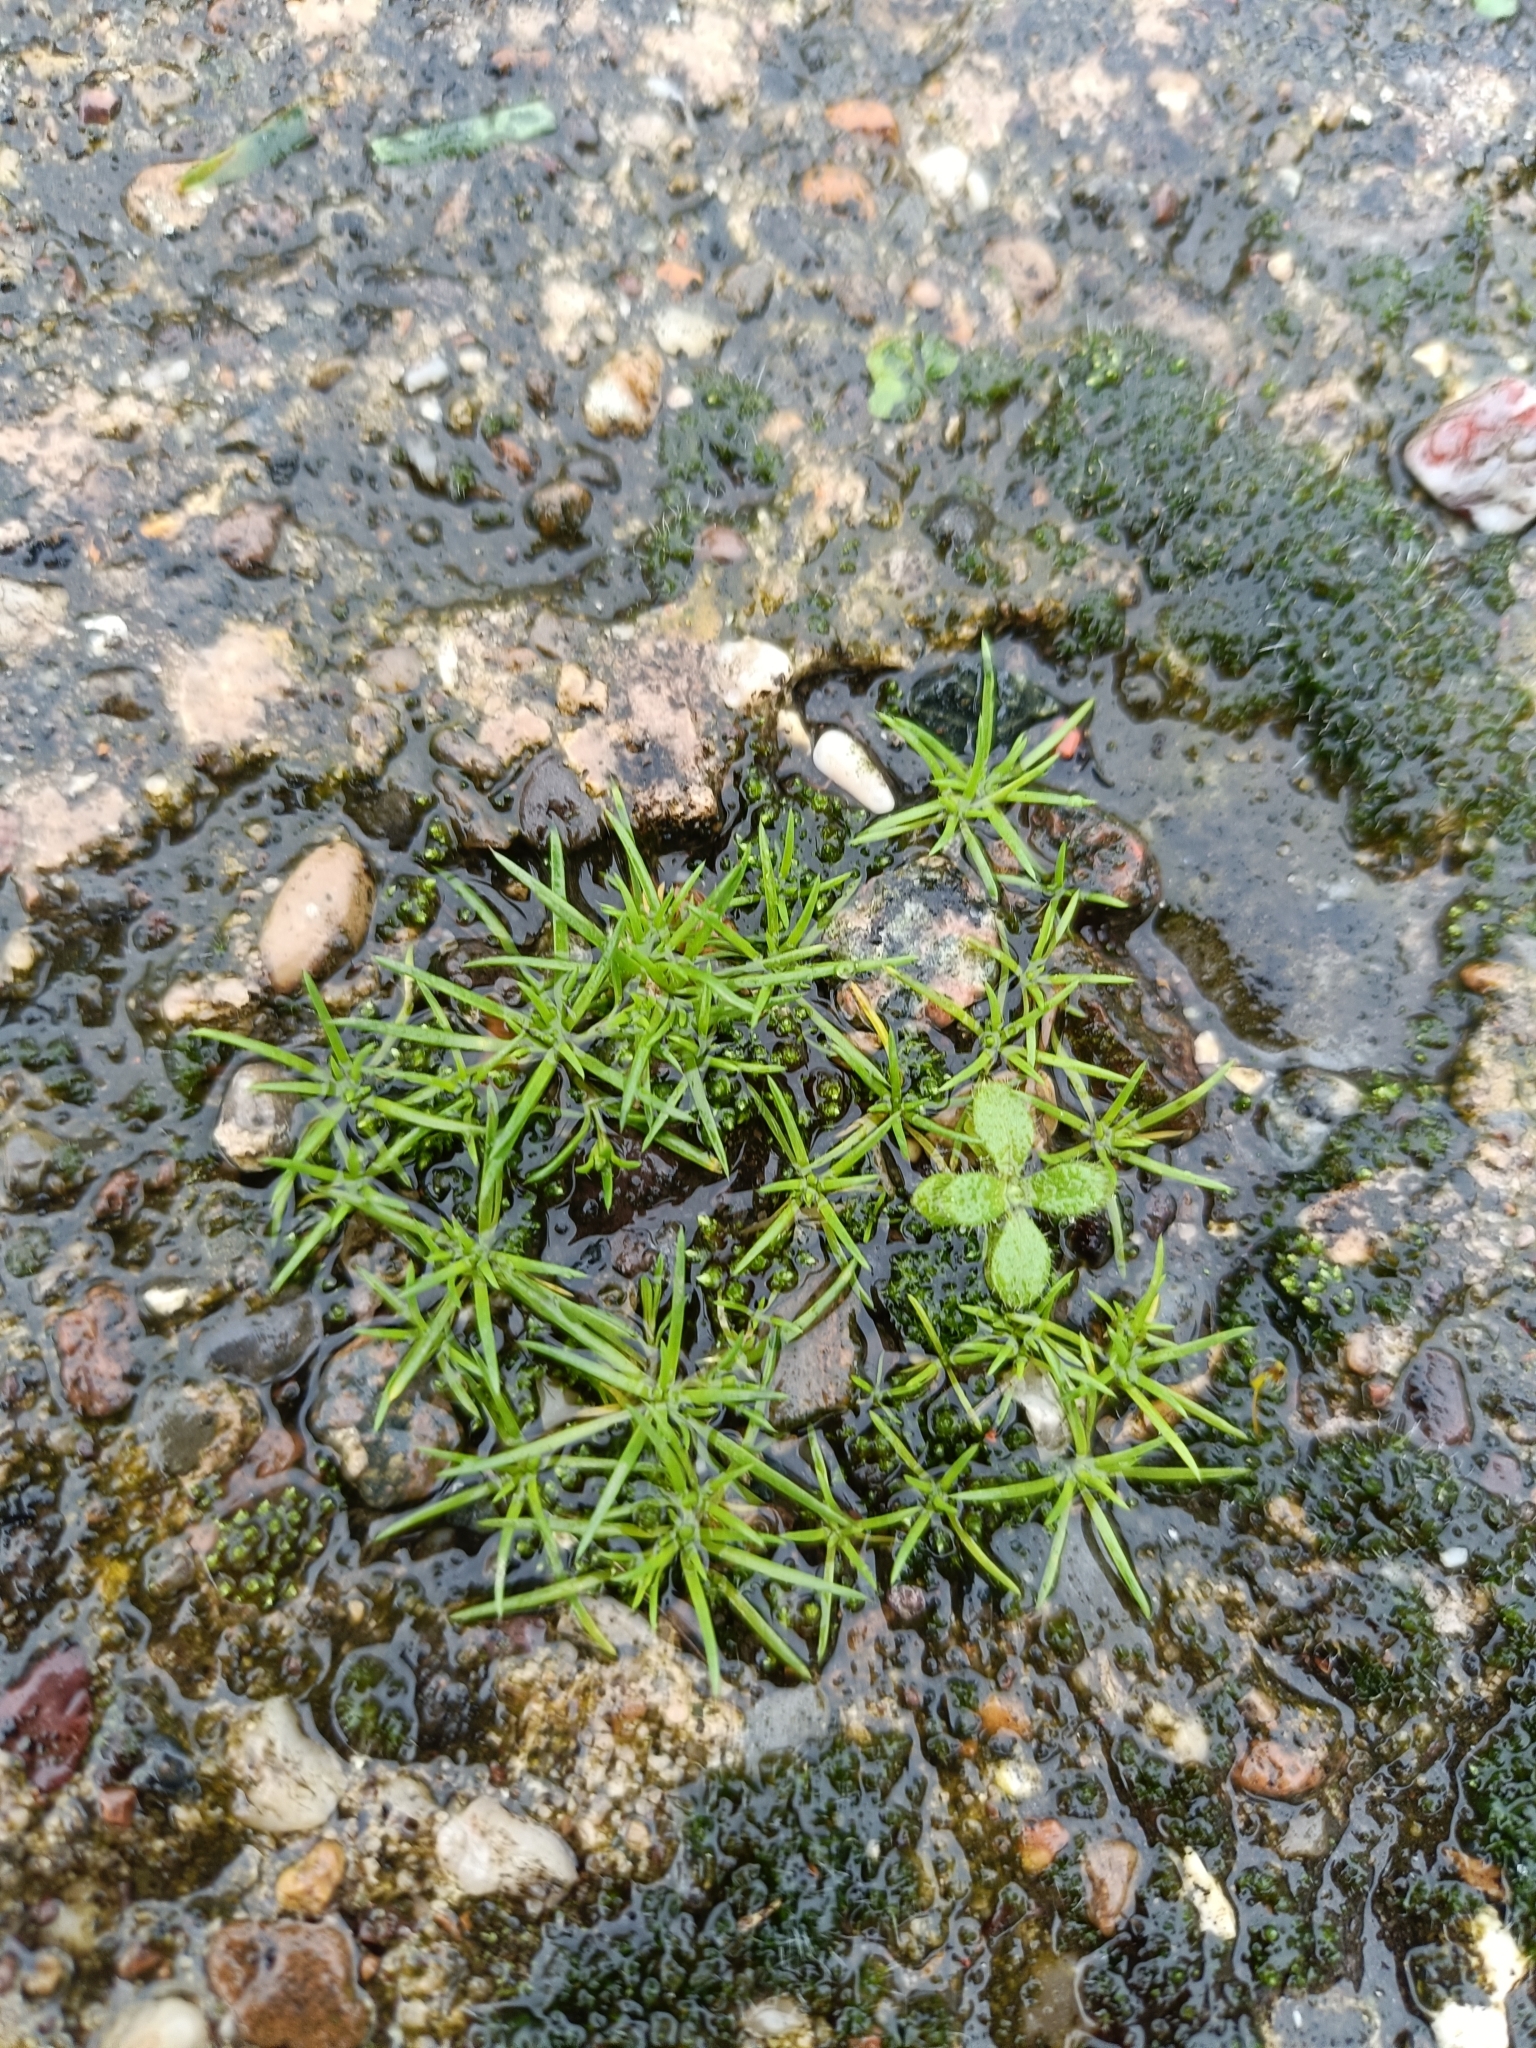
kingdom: Plantae
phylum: Tracheophyta
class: Magnoliopsida
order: Caryophyllales
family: Caryophyllaceae
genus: Sagina
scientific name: Sagina procumbens
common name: Procumbent pearlwort
